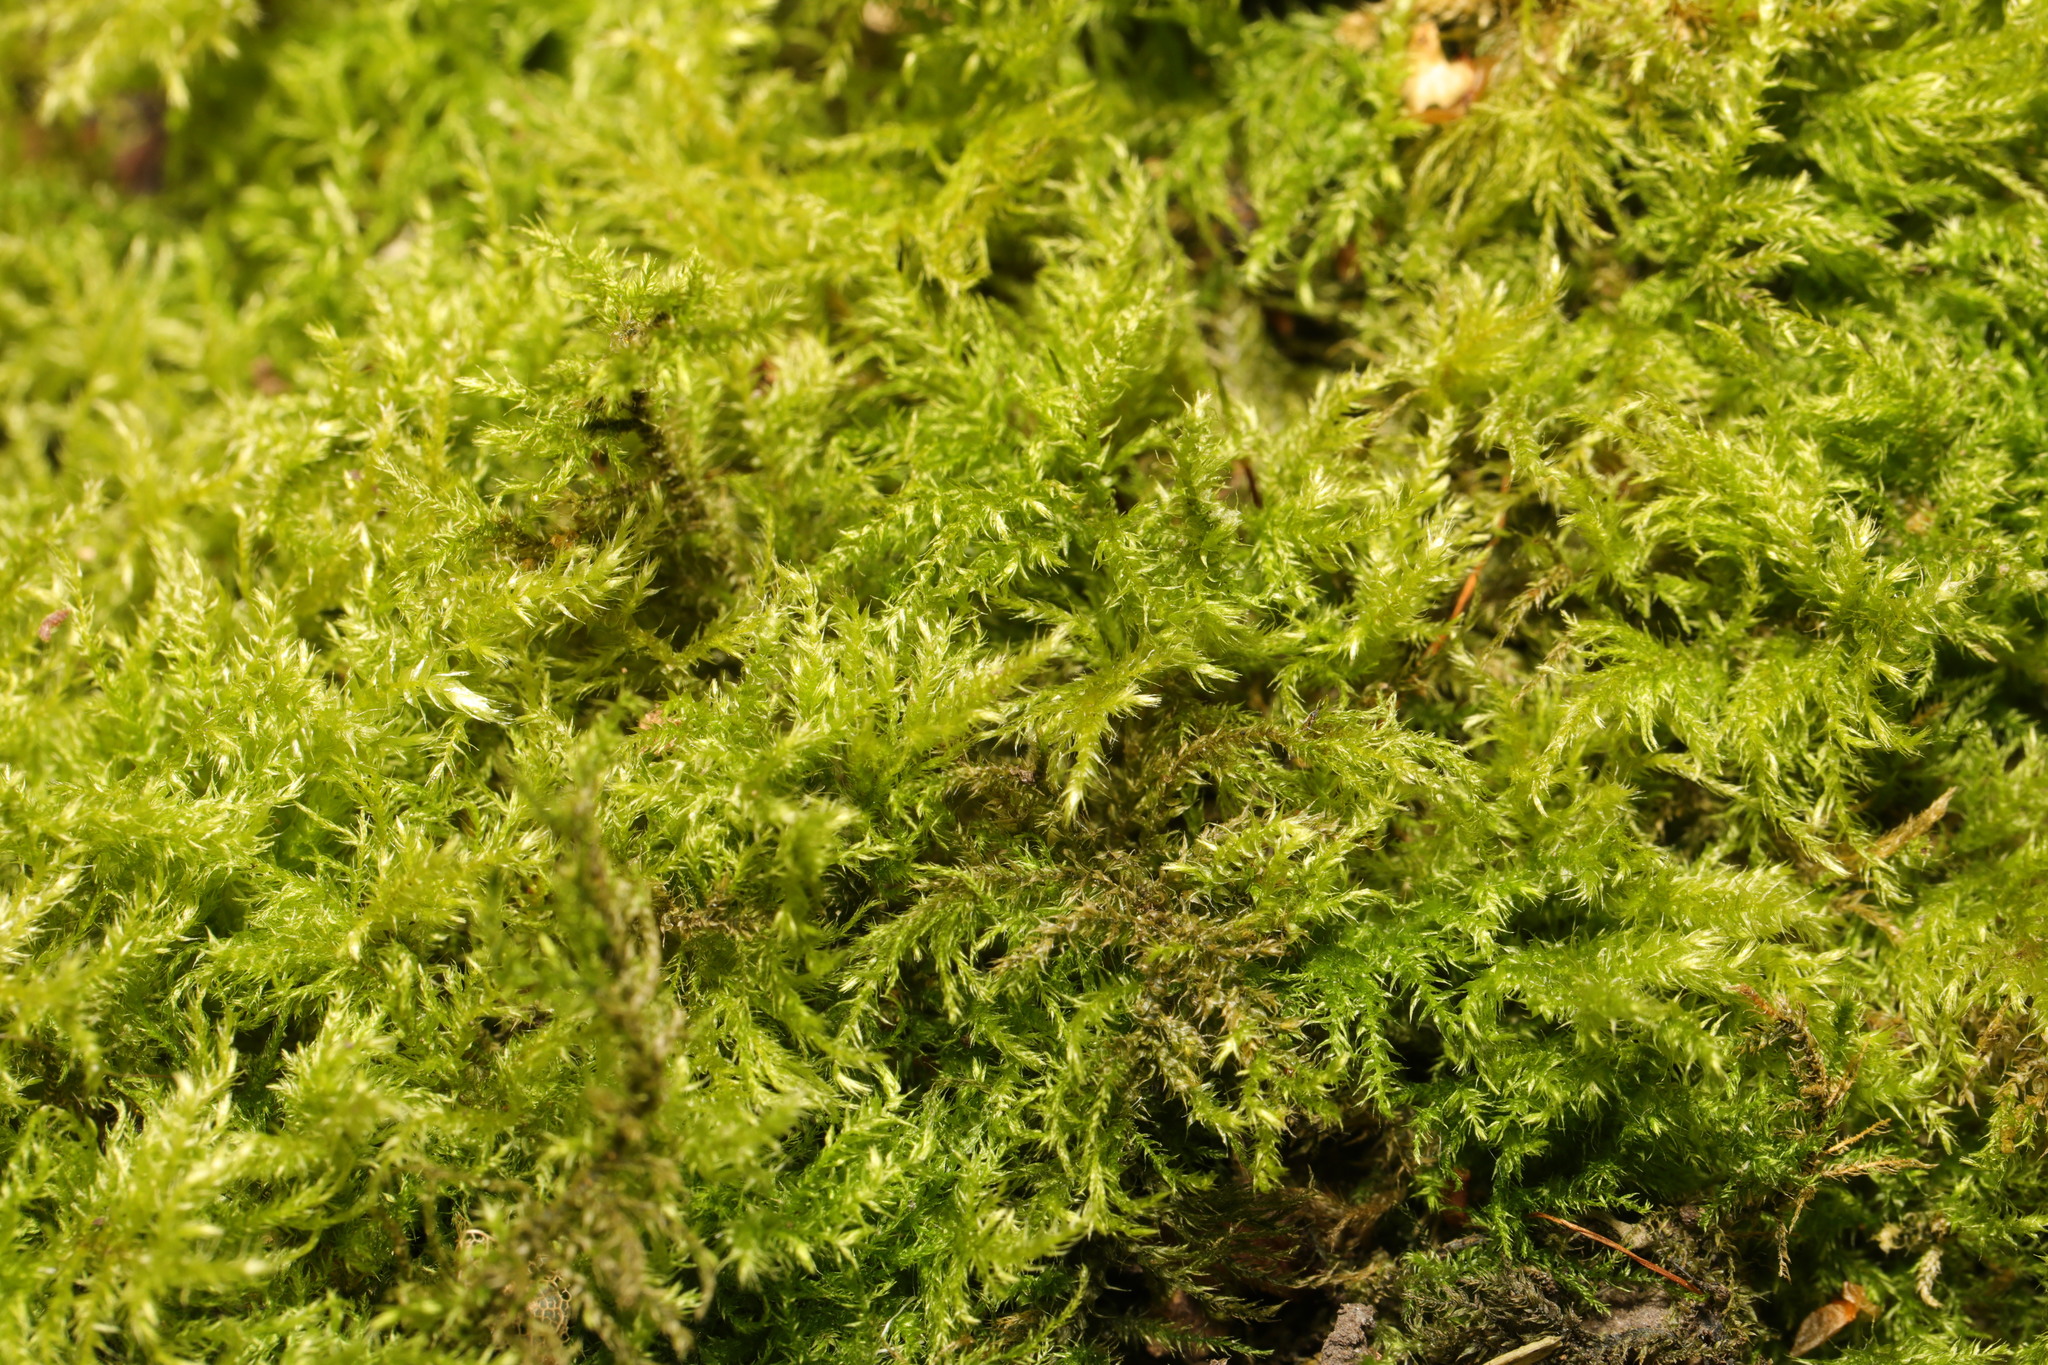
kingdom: Plantae
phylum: Bryophyta
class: Bryopsida
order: Hypnales
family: Brachytheciaceae
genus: Kindbergia
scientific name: Kindbergia praelonga
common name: Slender beaked moss
